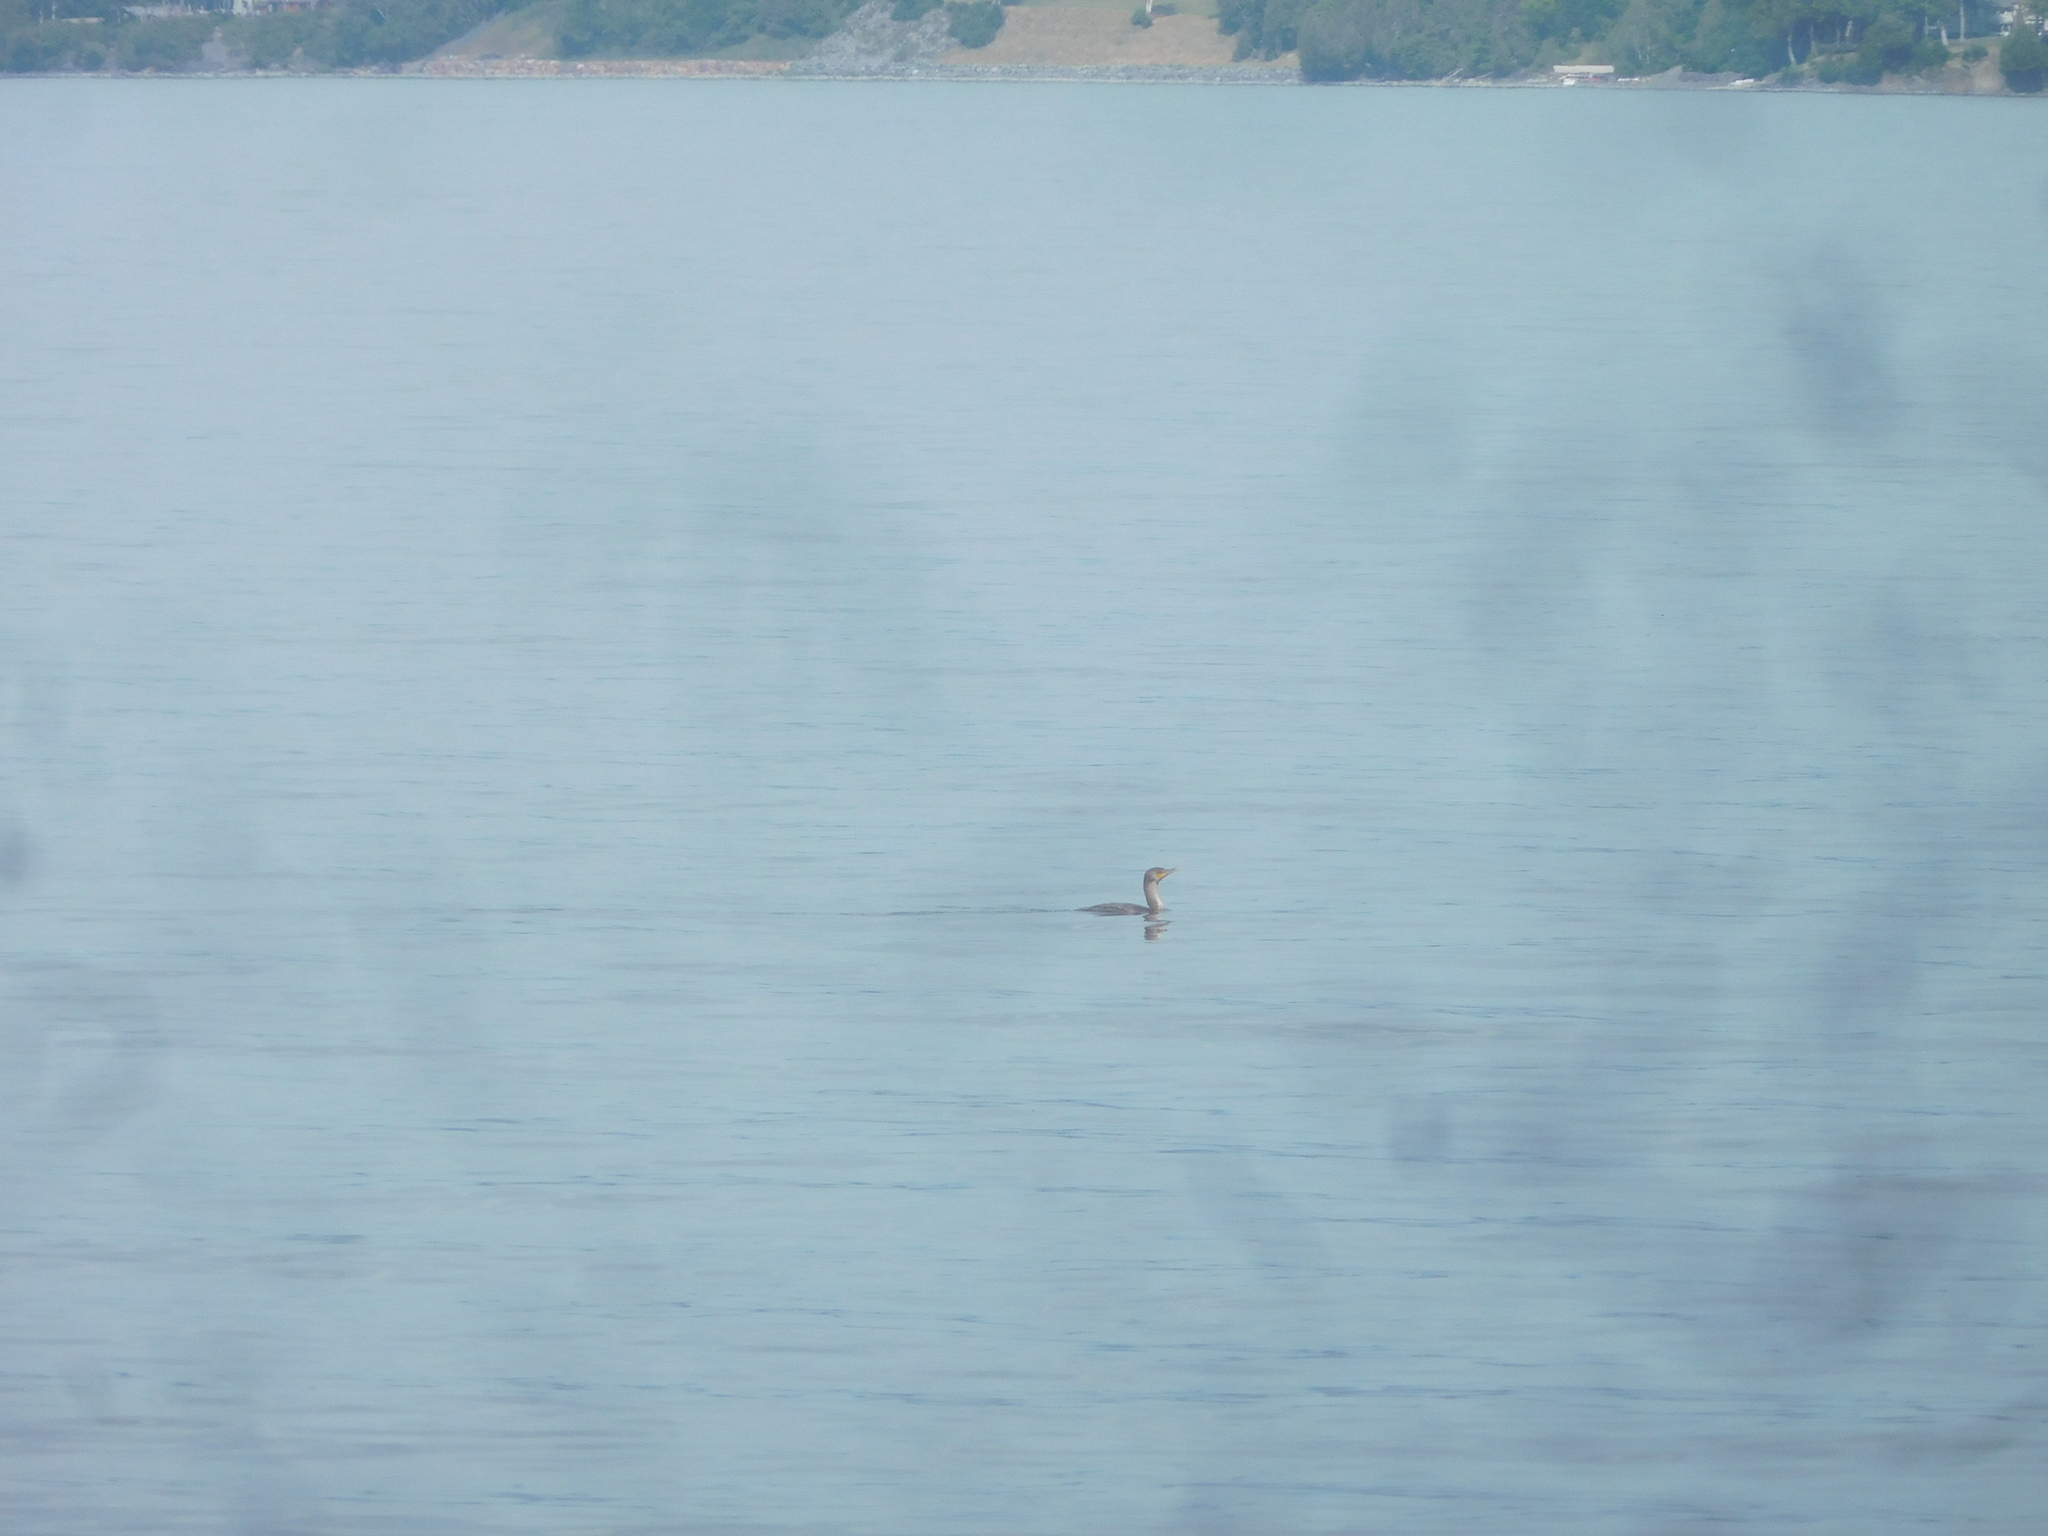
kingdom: Animalia
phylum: Chordata
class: Aves
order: Suliformes
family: Phalacrocoracidae
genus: Phalacrocorax
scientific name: Phalacrocorax auritus
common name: Double-crested cormorant
